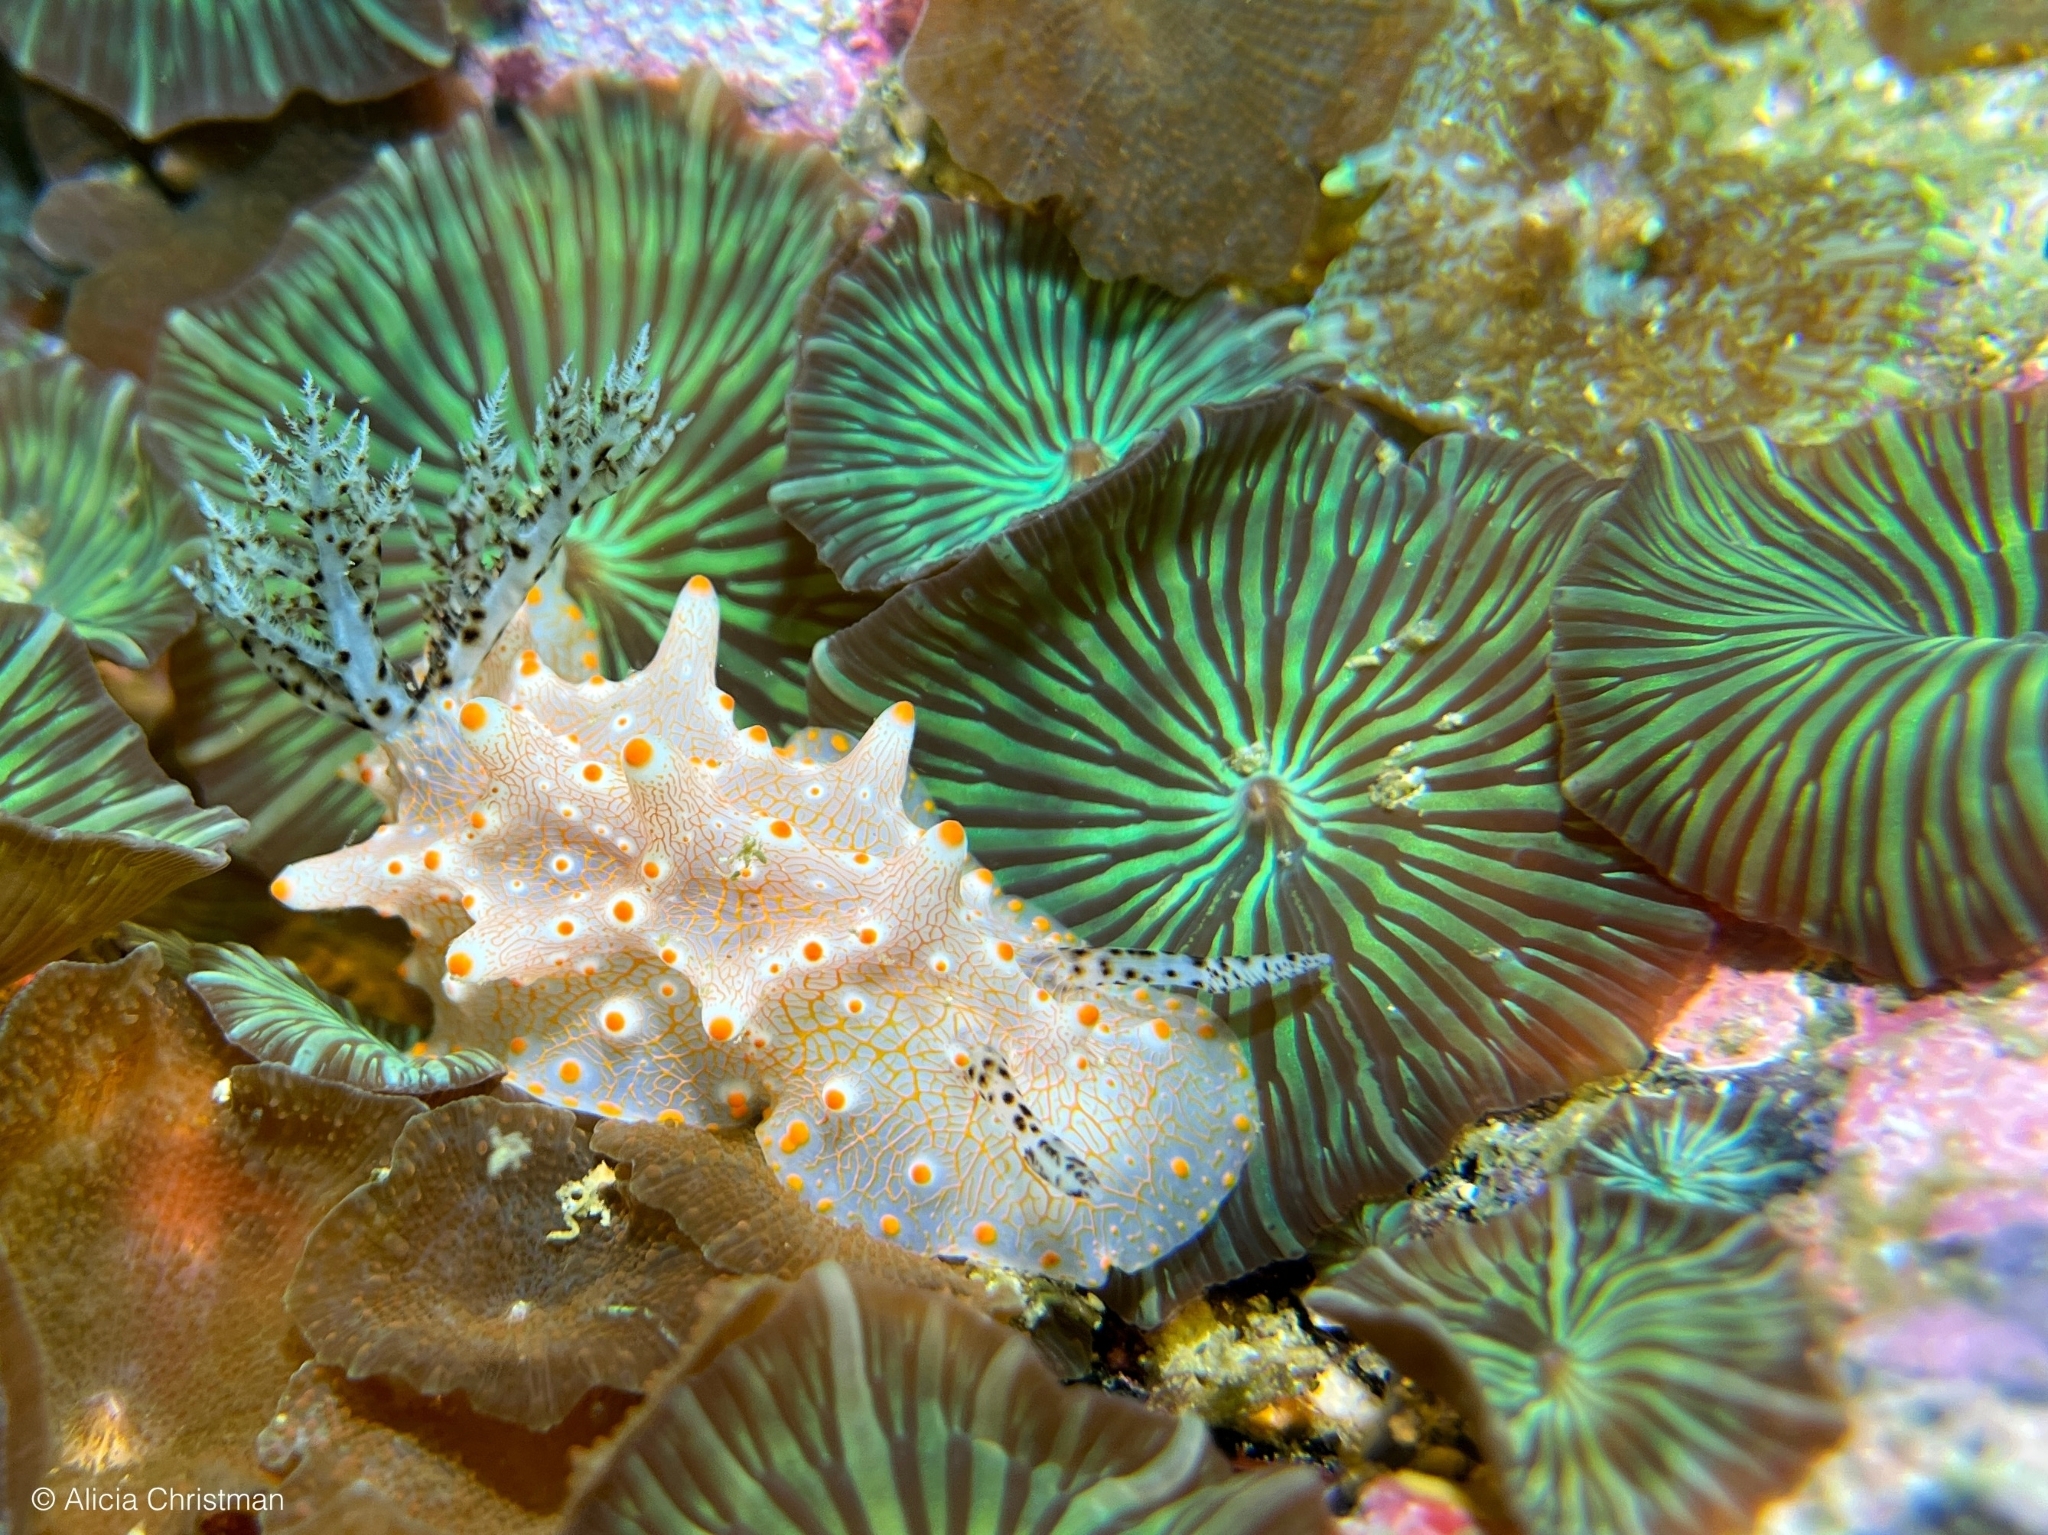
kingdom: Animalia
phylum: Mollusca
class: Gastropoda
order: Nudibranchia
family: Discodorididae
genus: Halgerda
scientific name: Halgerda batangas
